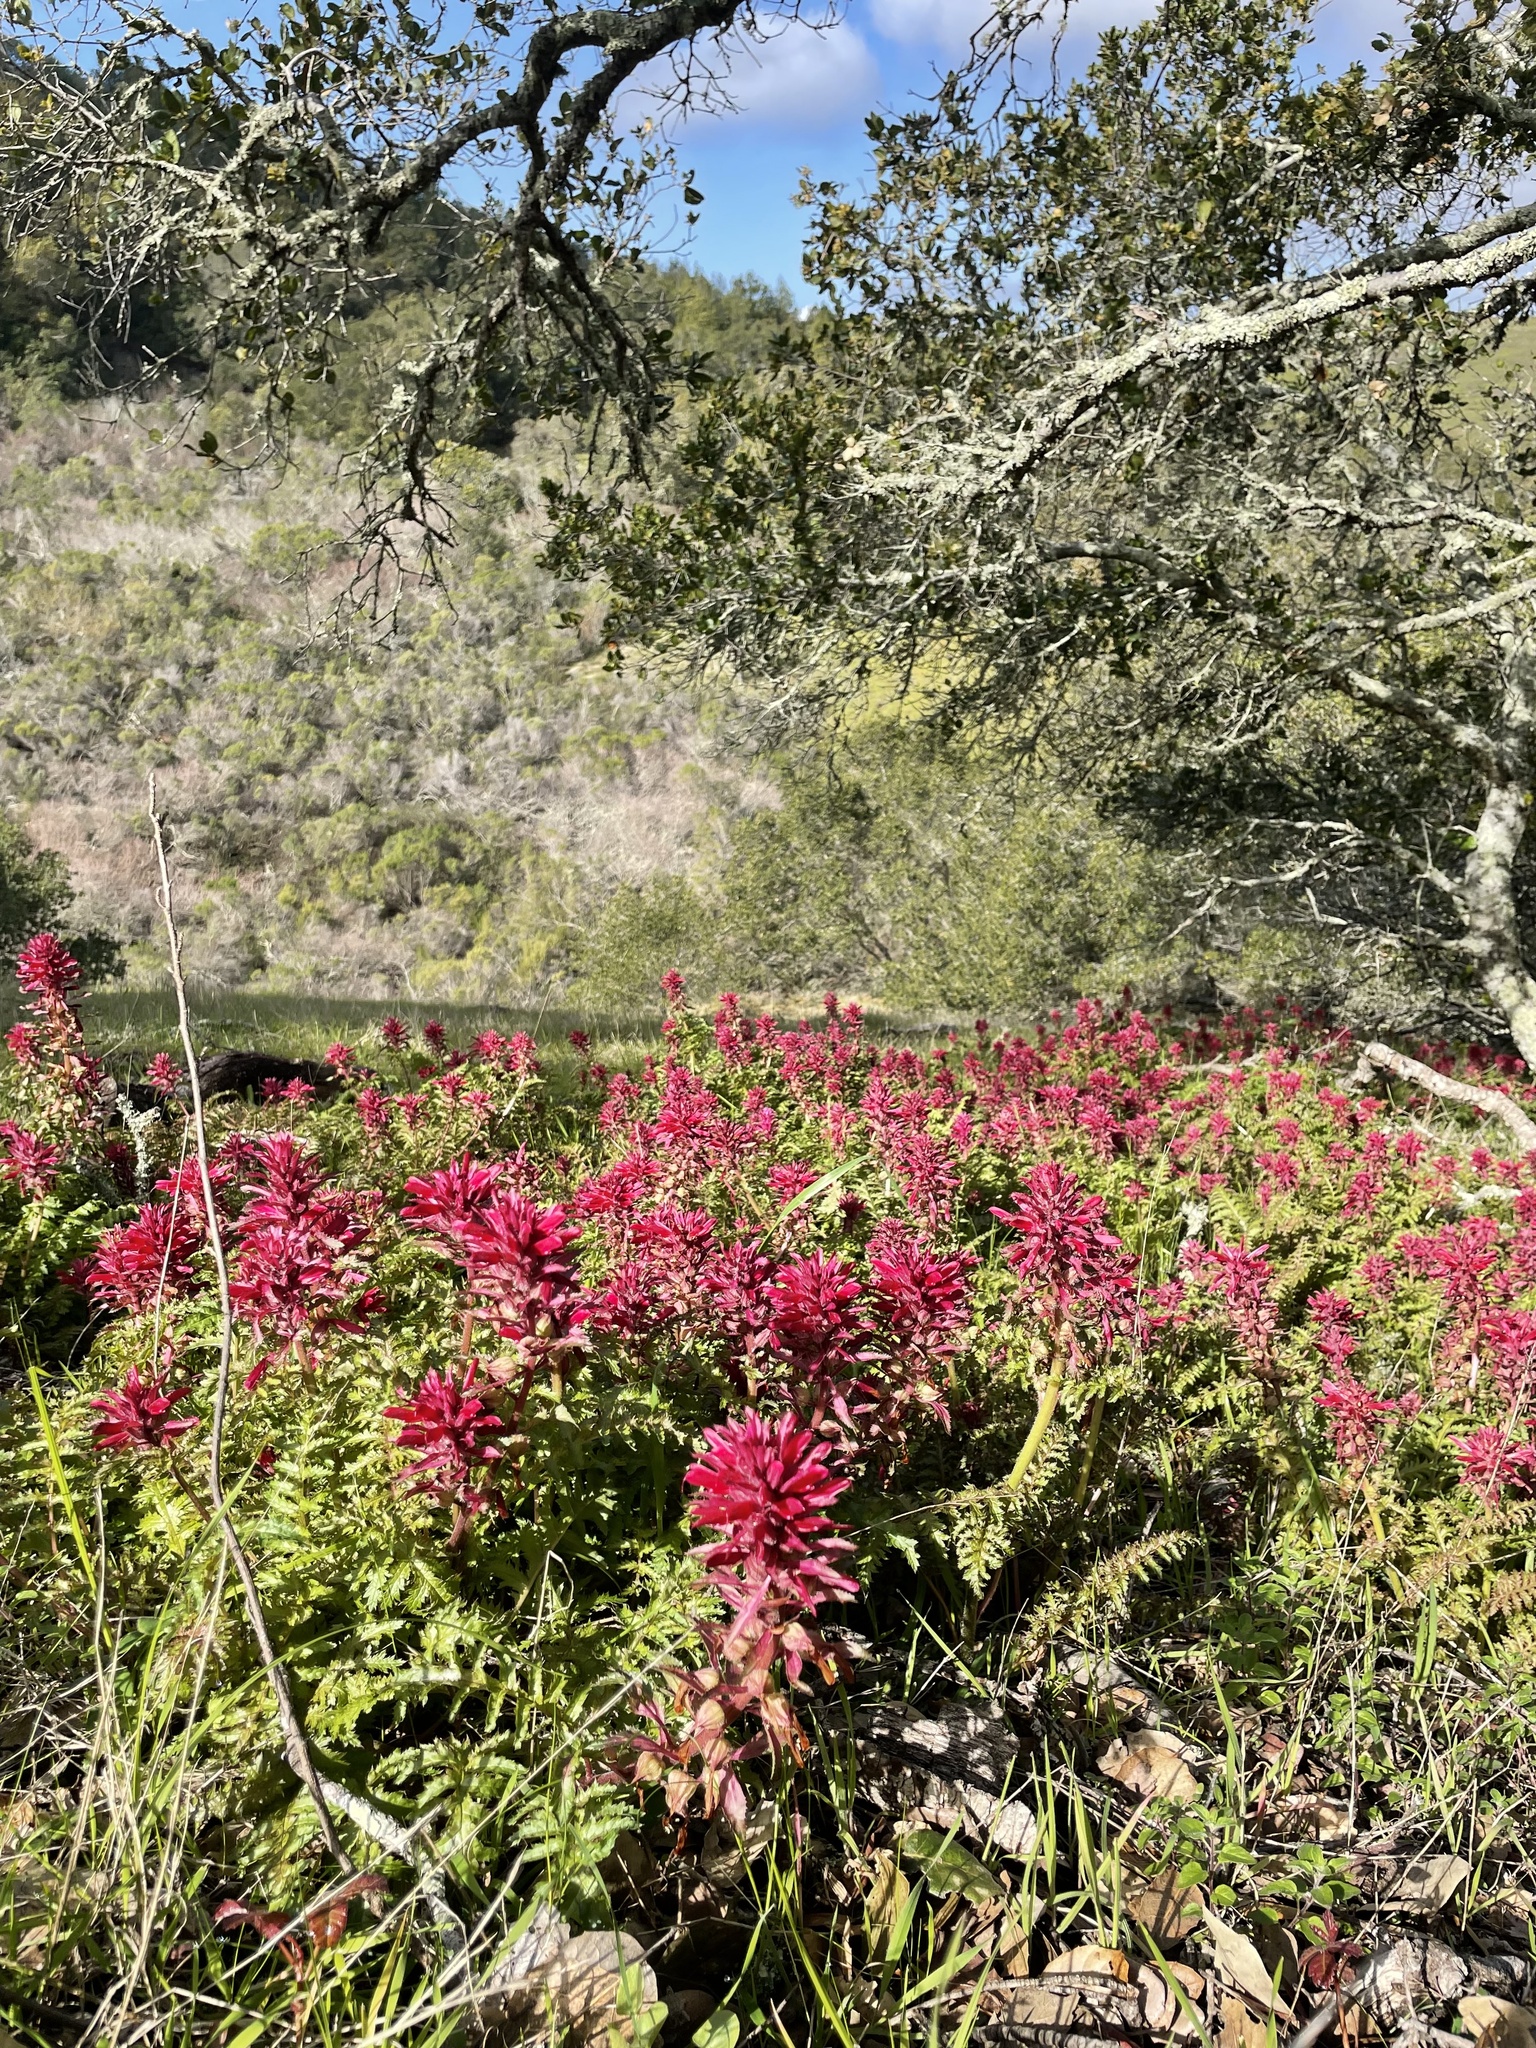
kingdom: Plantae
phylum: Tracheophyta
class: Magnoliopsida
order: Lamiales
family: Orobanchaceae
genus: Pedicularis
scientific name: Pedicularis densiflora
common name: Indian warrior
